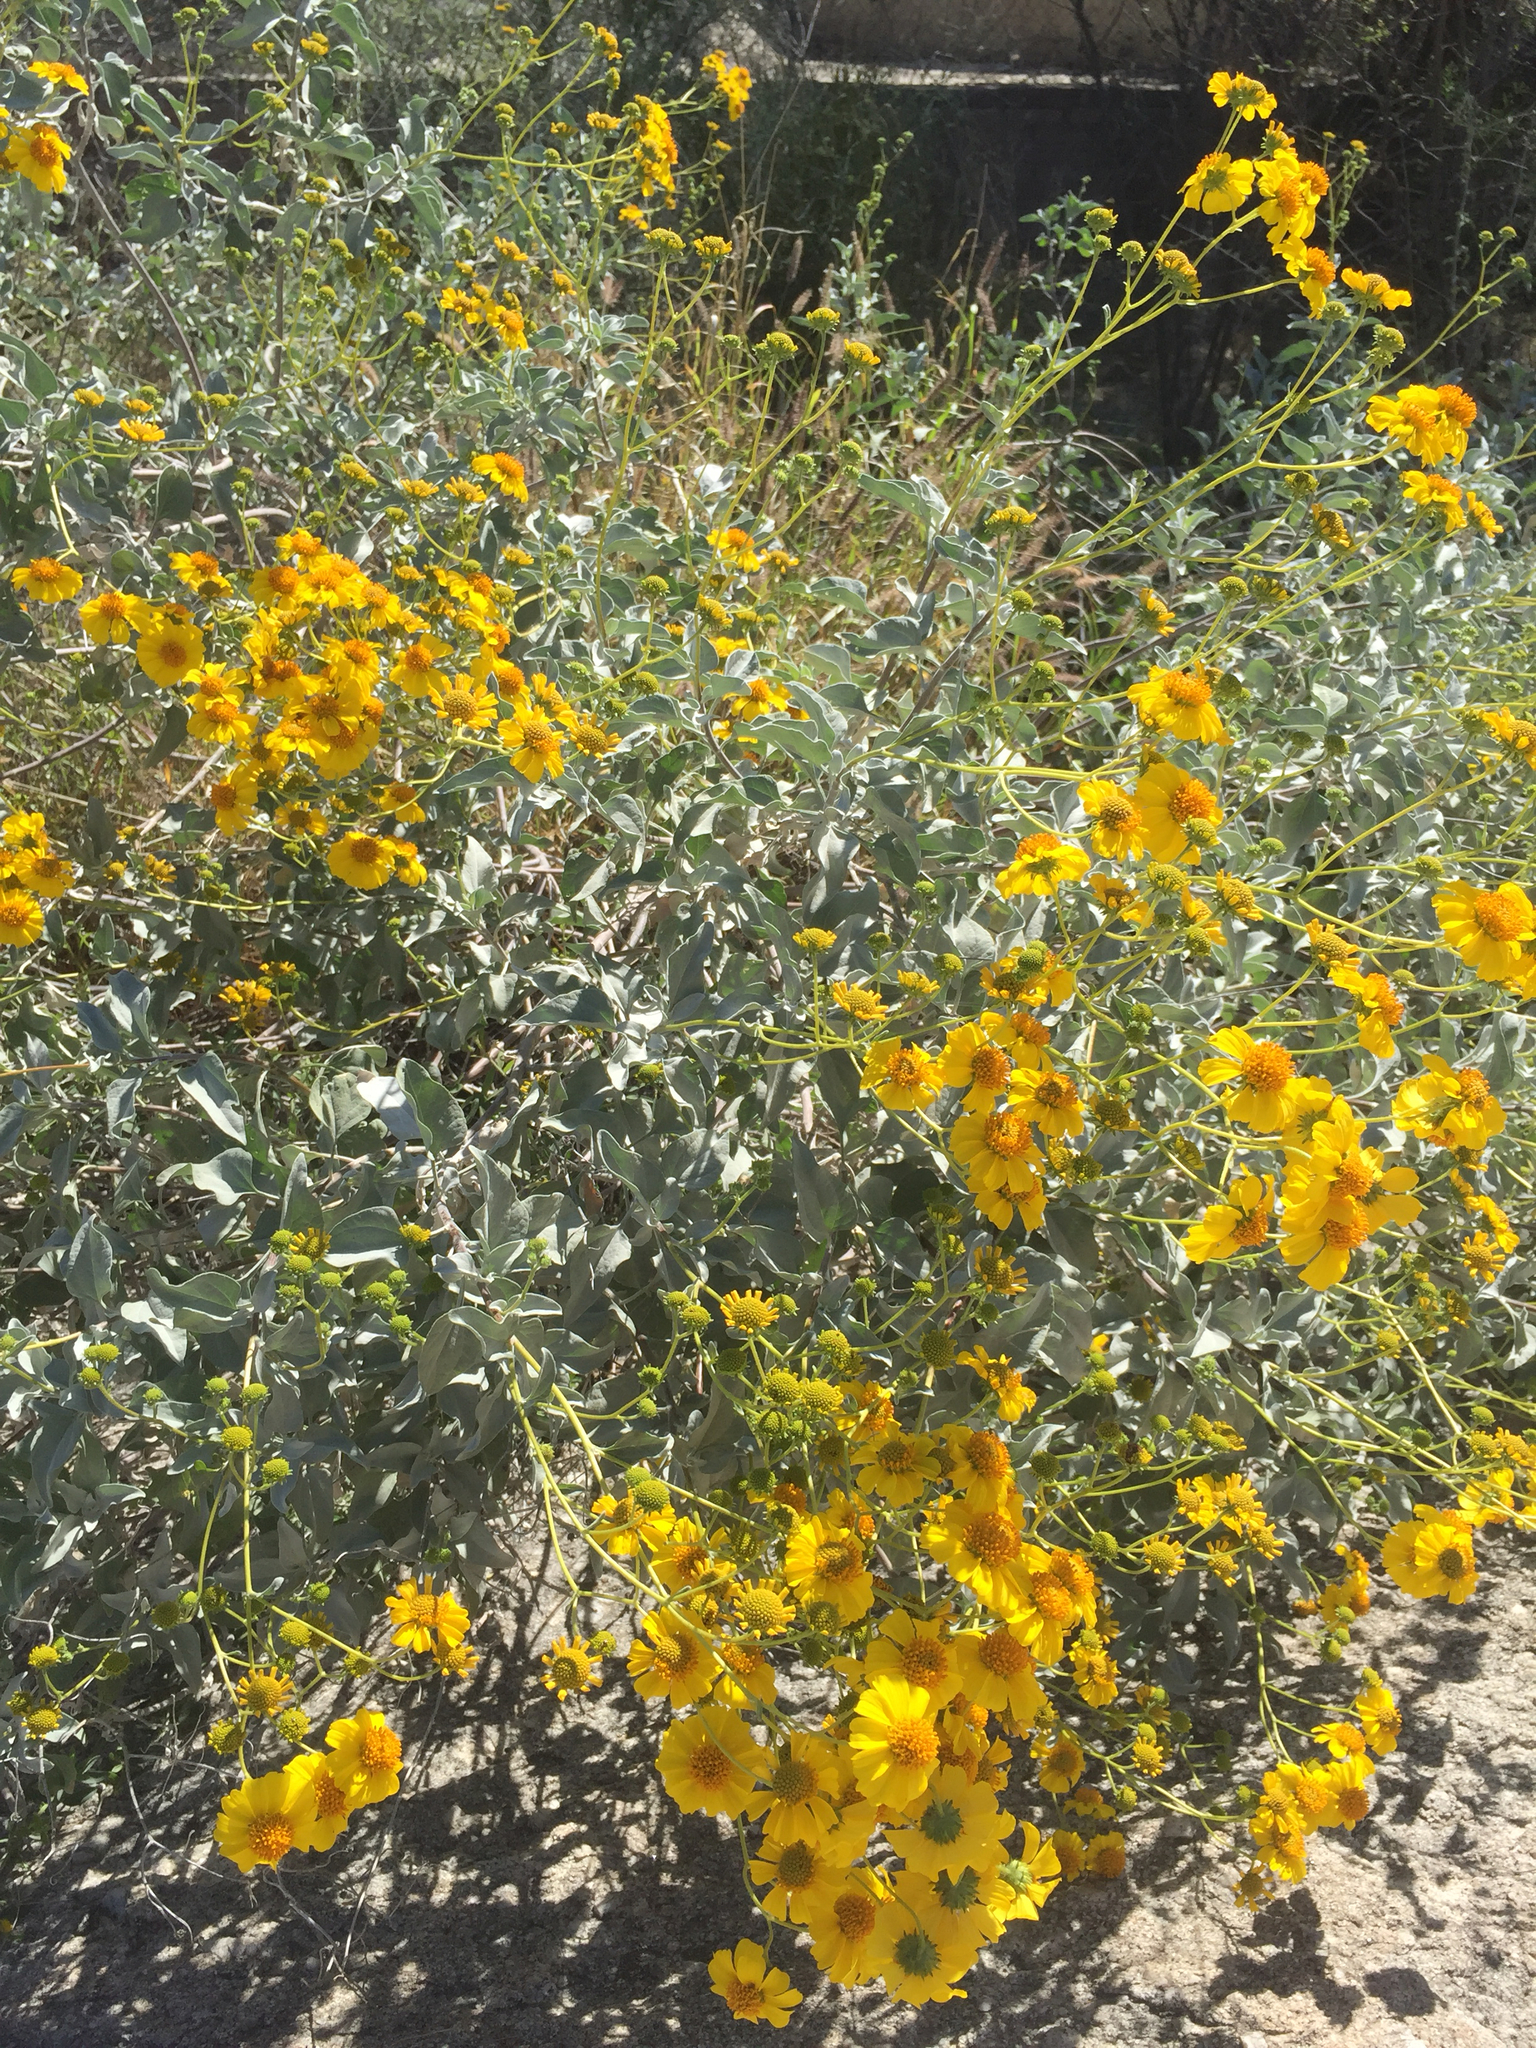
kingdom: Plantae
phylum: Tracheophyta
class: Magnoliopsida
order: Asterales
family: Asteraceae
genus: Encelia
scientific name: Encelia farinosa
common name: Brittlebush
